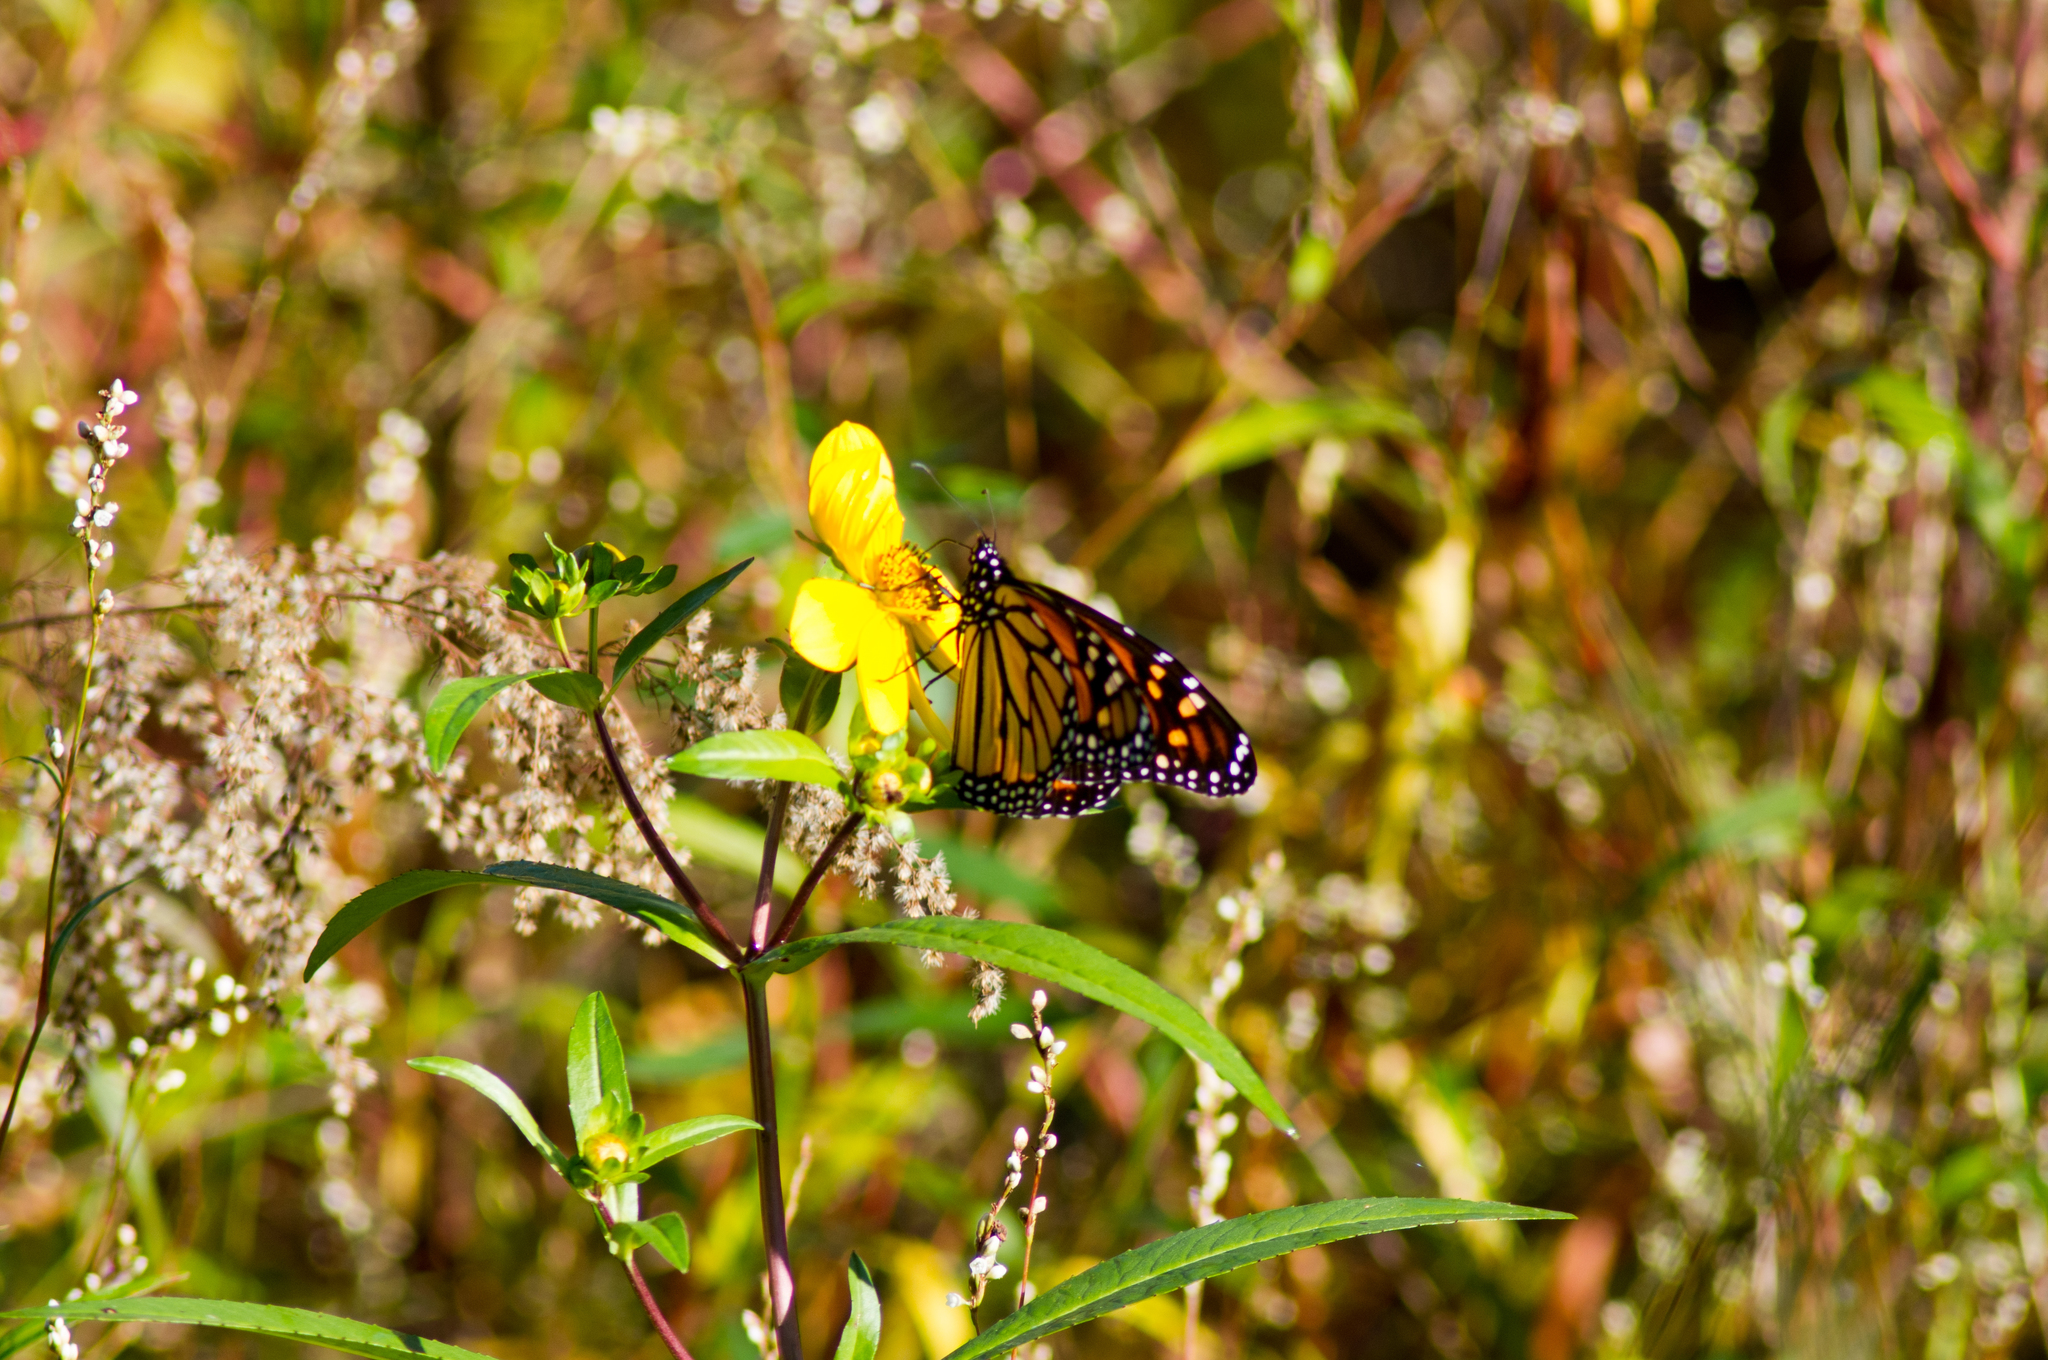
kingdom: Animalia
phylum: Arthropoda
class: Insecta
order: Lepidoptera
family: Nymphalidae
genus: Danaus
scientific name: Danaus plexippus
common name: Monarch
